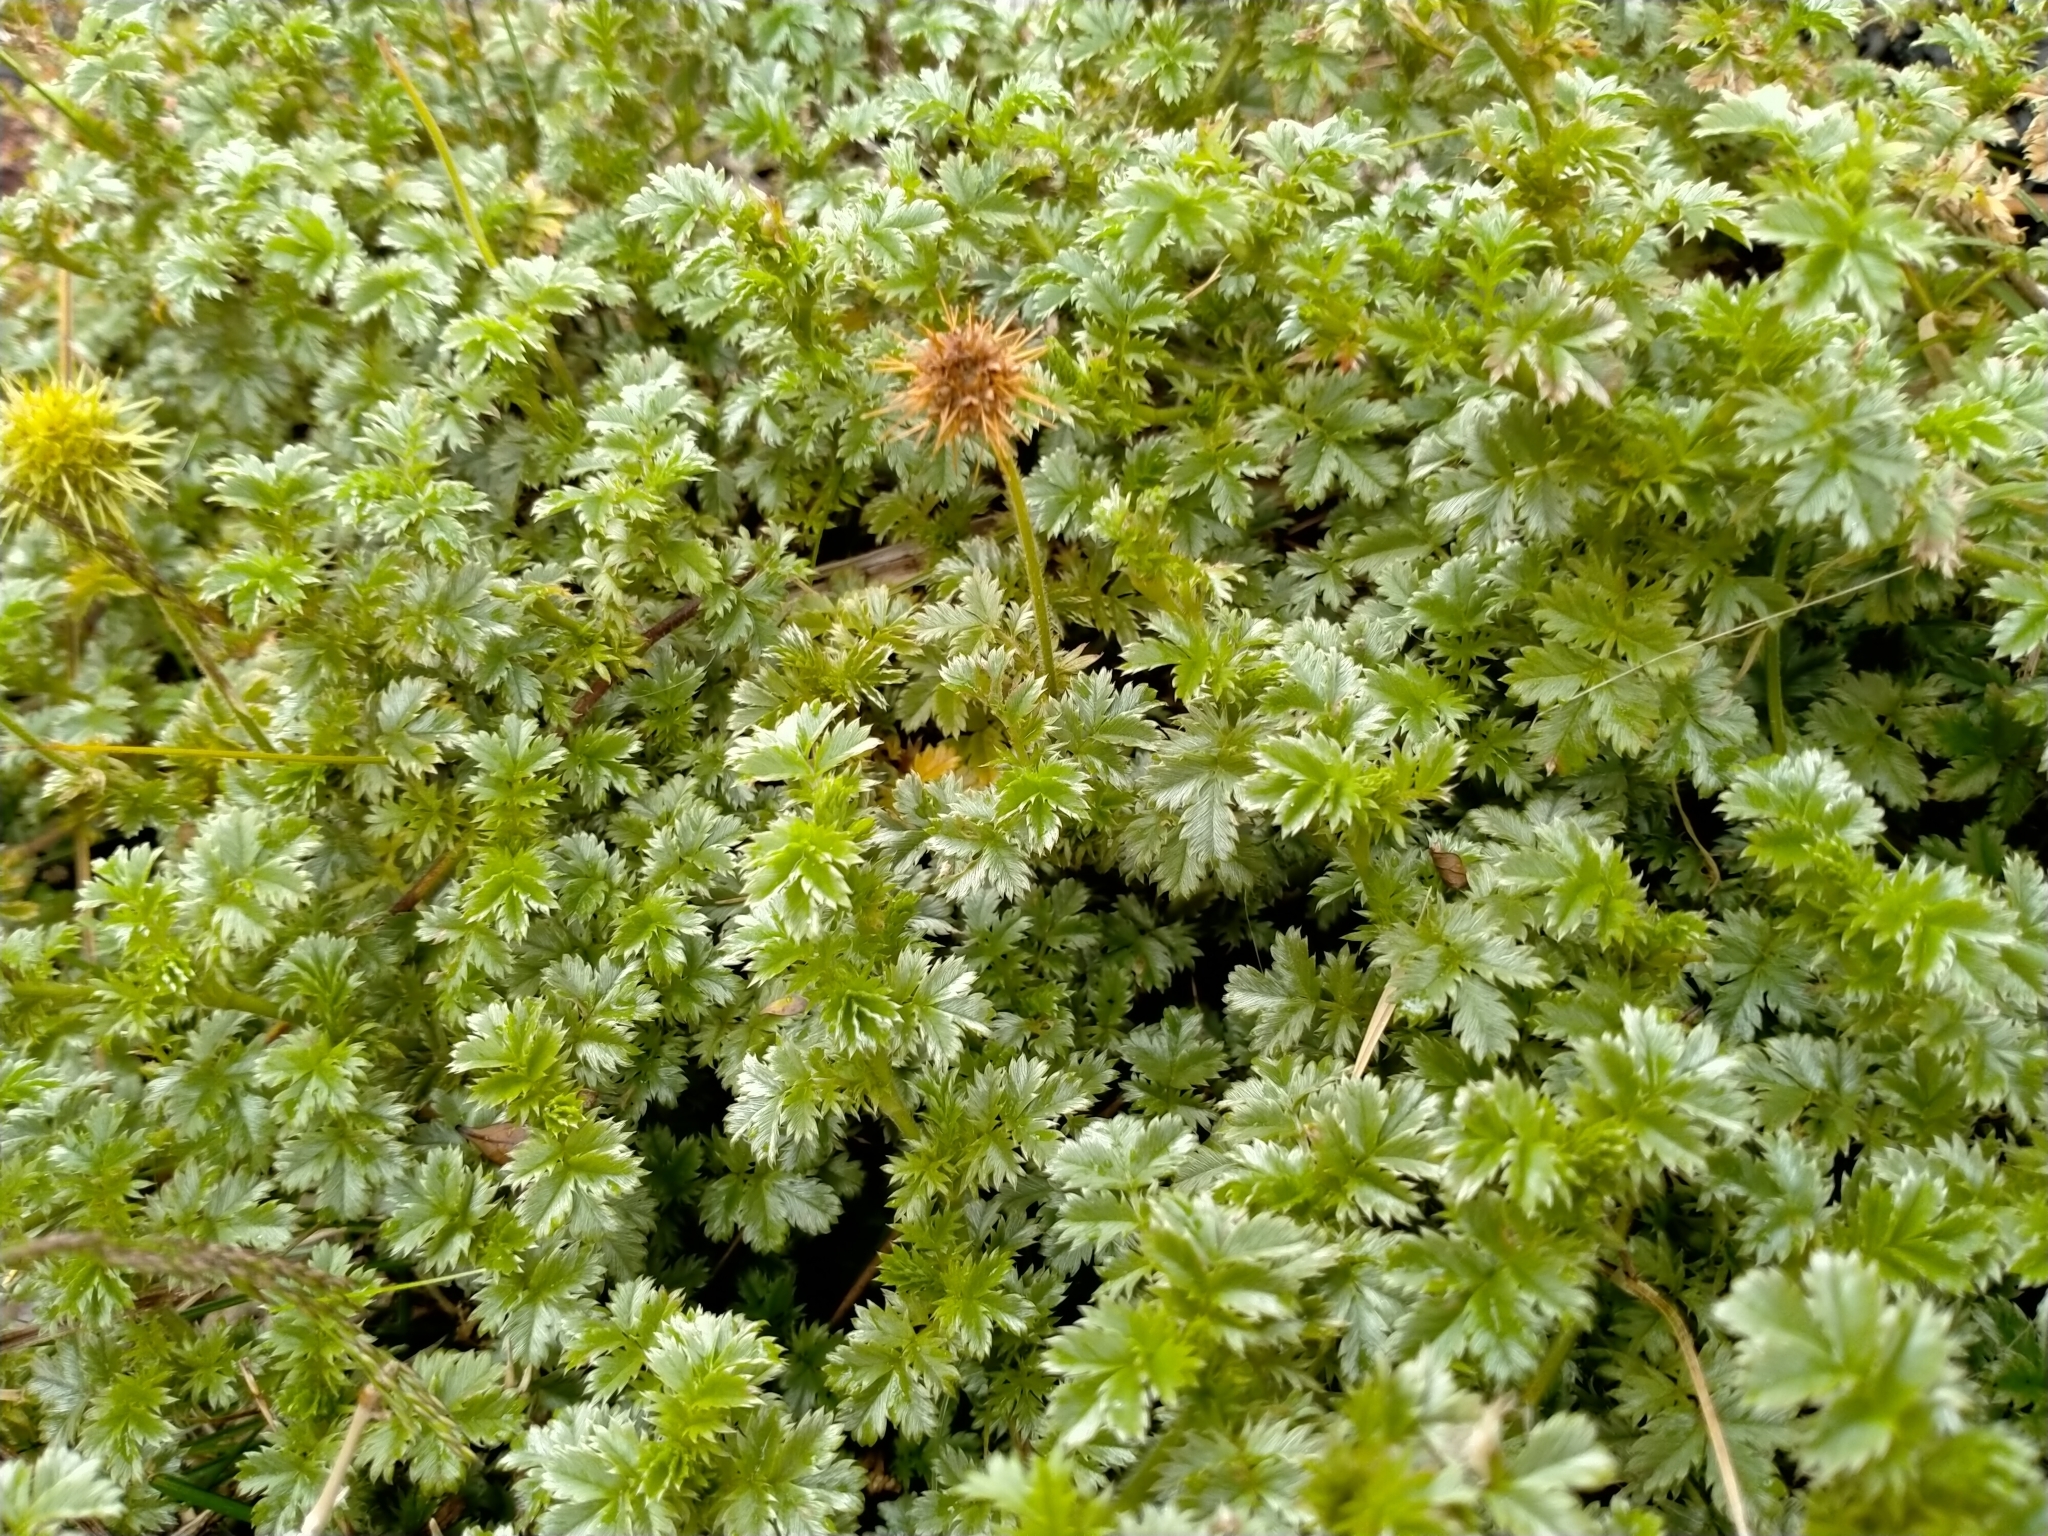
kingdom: Plantae
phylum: Tracheophyta
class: Magnoliopsida
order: Rosales
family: Rosaceae
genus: Acaena
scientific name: Acaena anserinifolia
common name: Bronze pirri-pirri-bur
